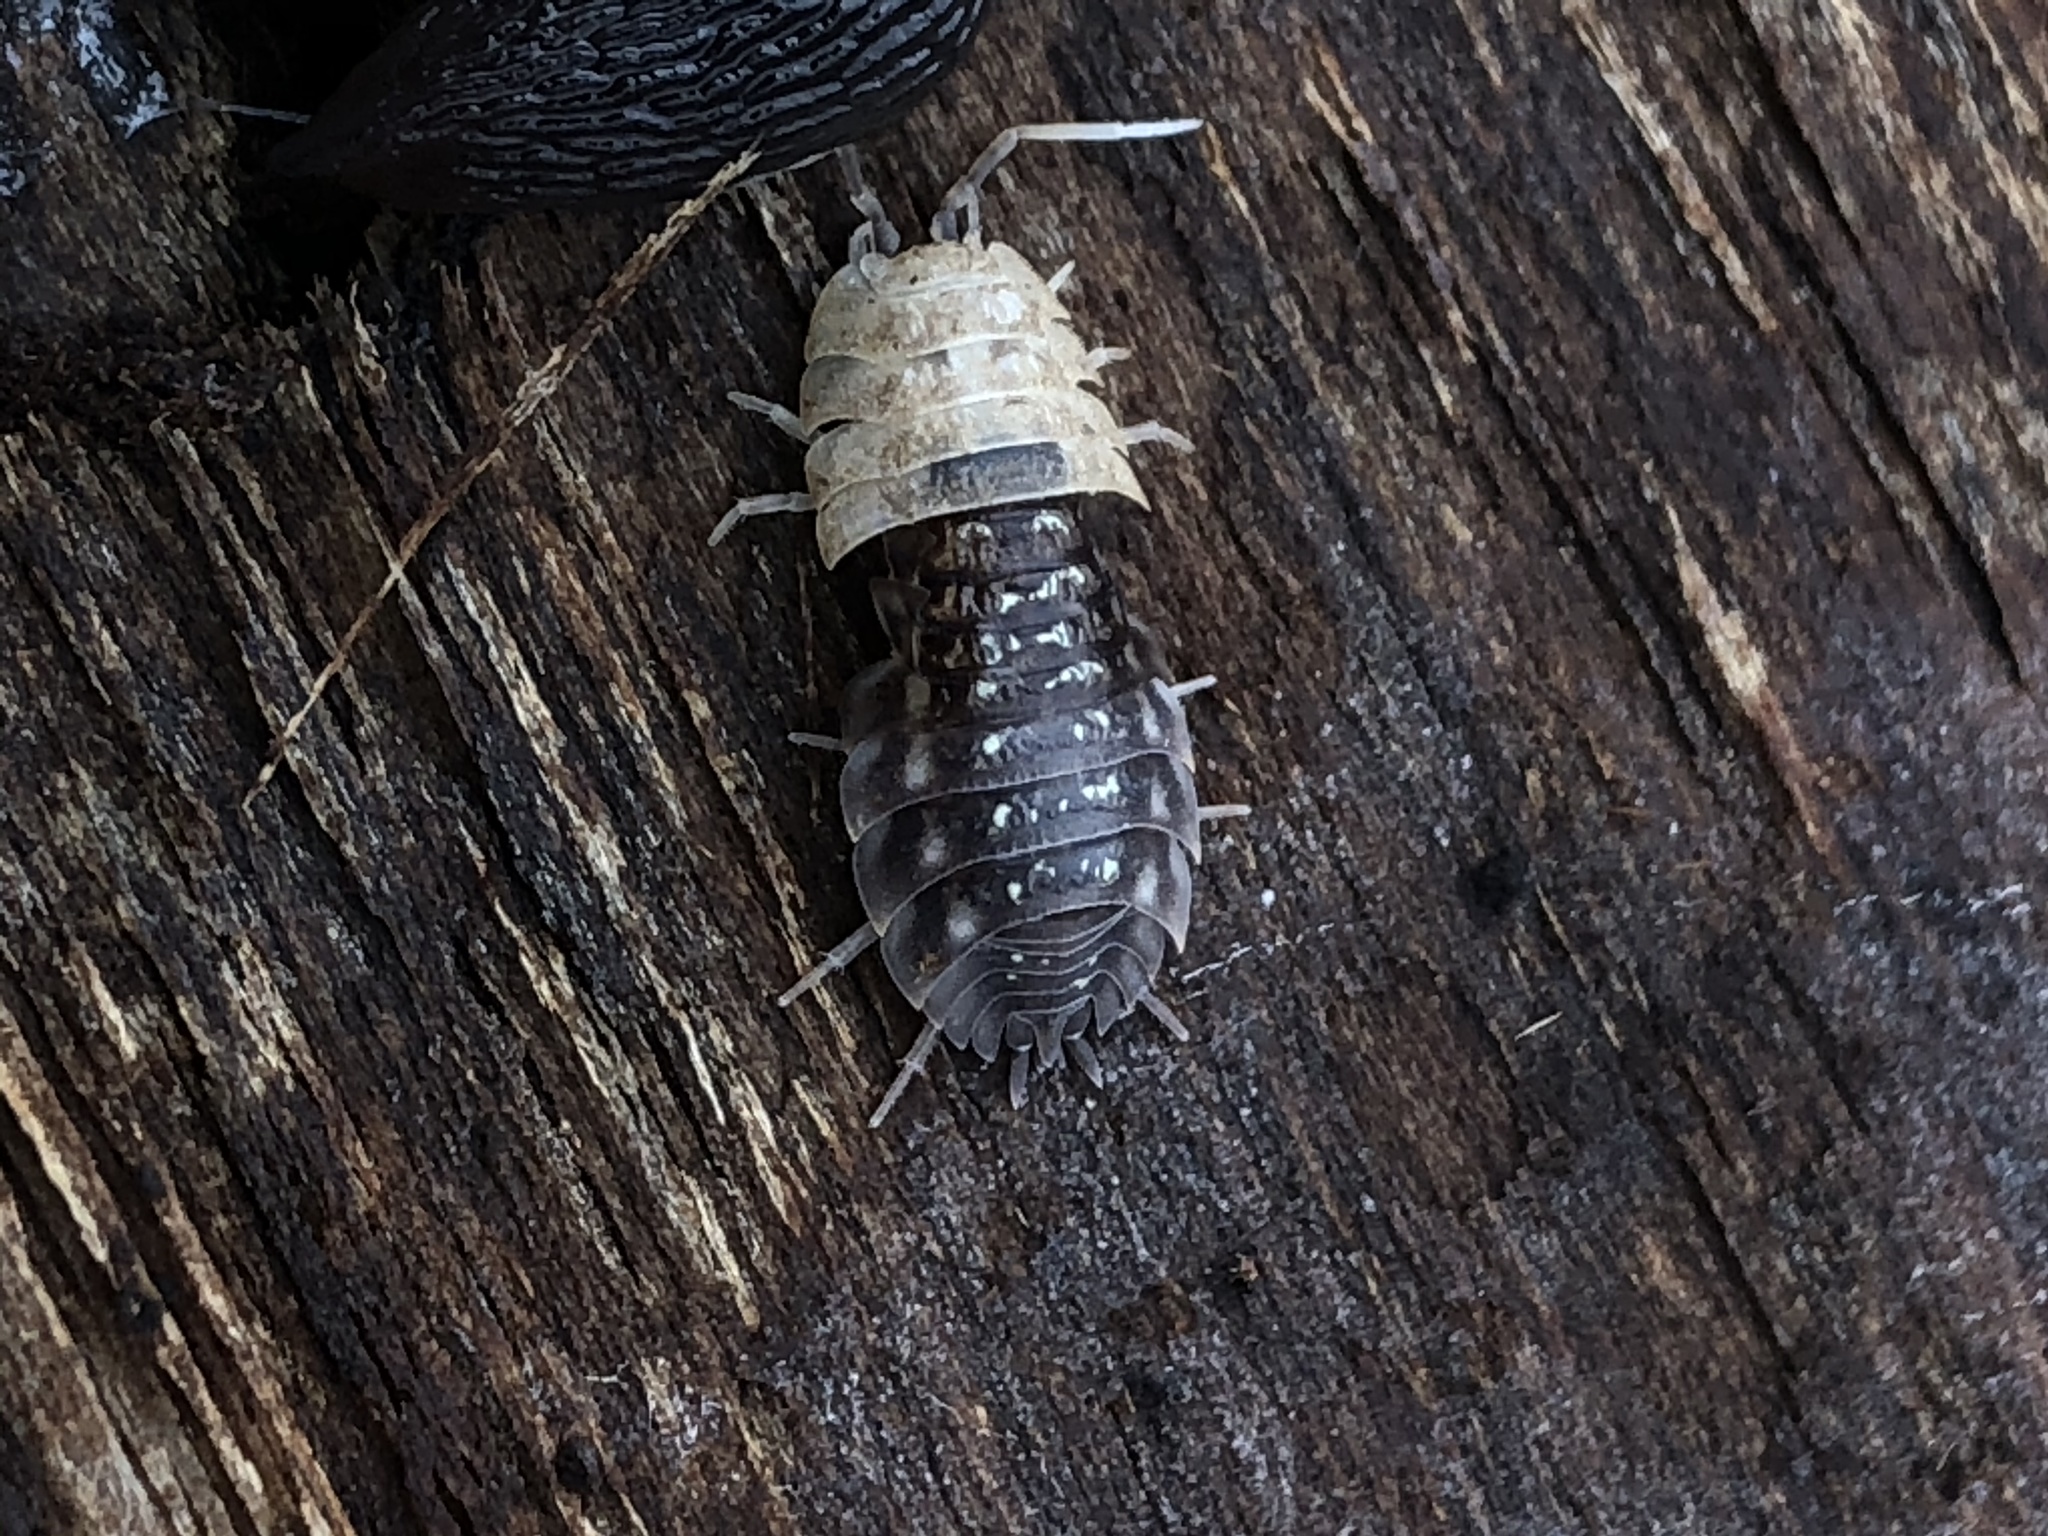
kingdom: Animalia
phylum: Arthropoda
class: Malacostraca
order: Isopoda
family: Oniscidae
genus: Oniscus
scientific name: Oniscus asellus
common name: Common shiny woodlouse
